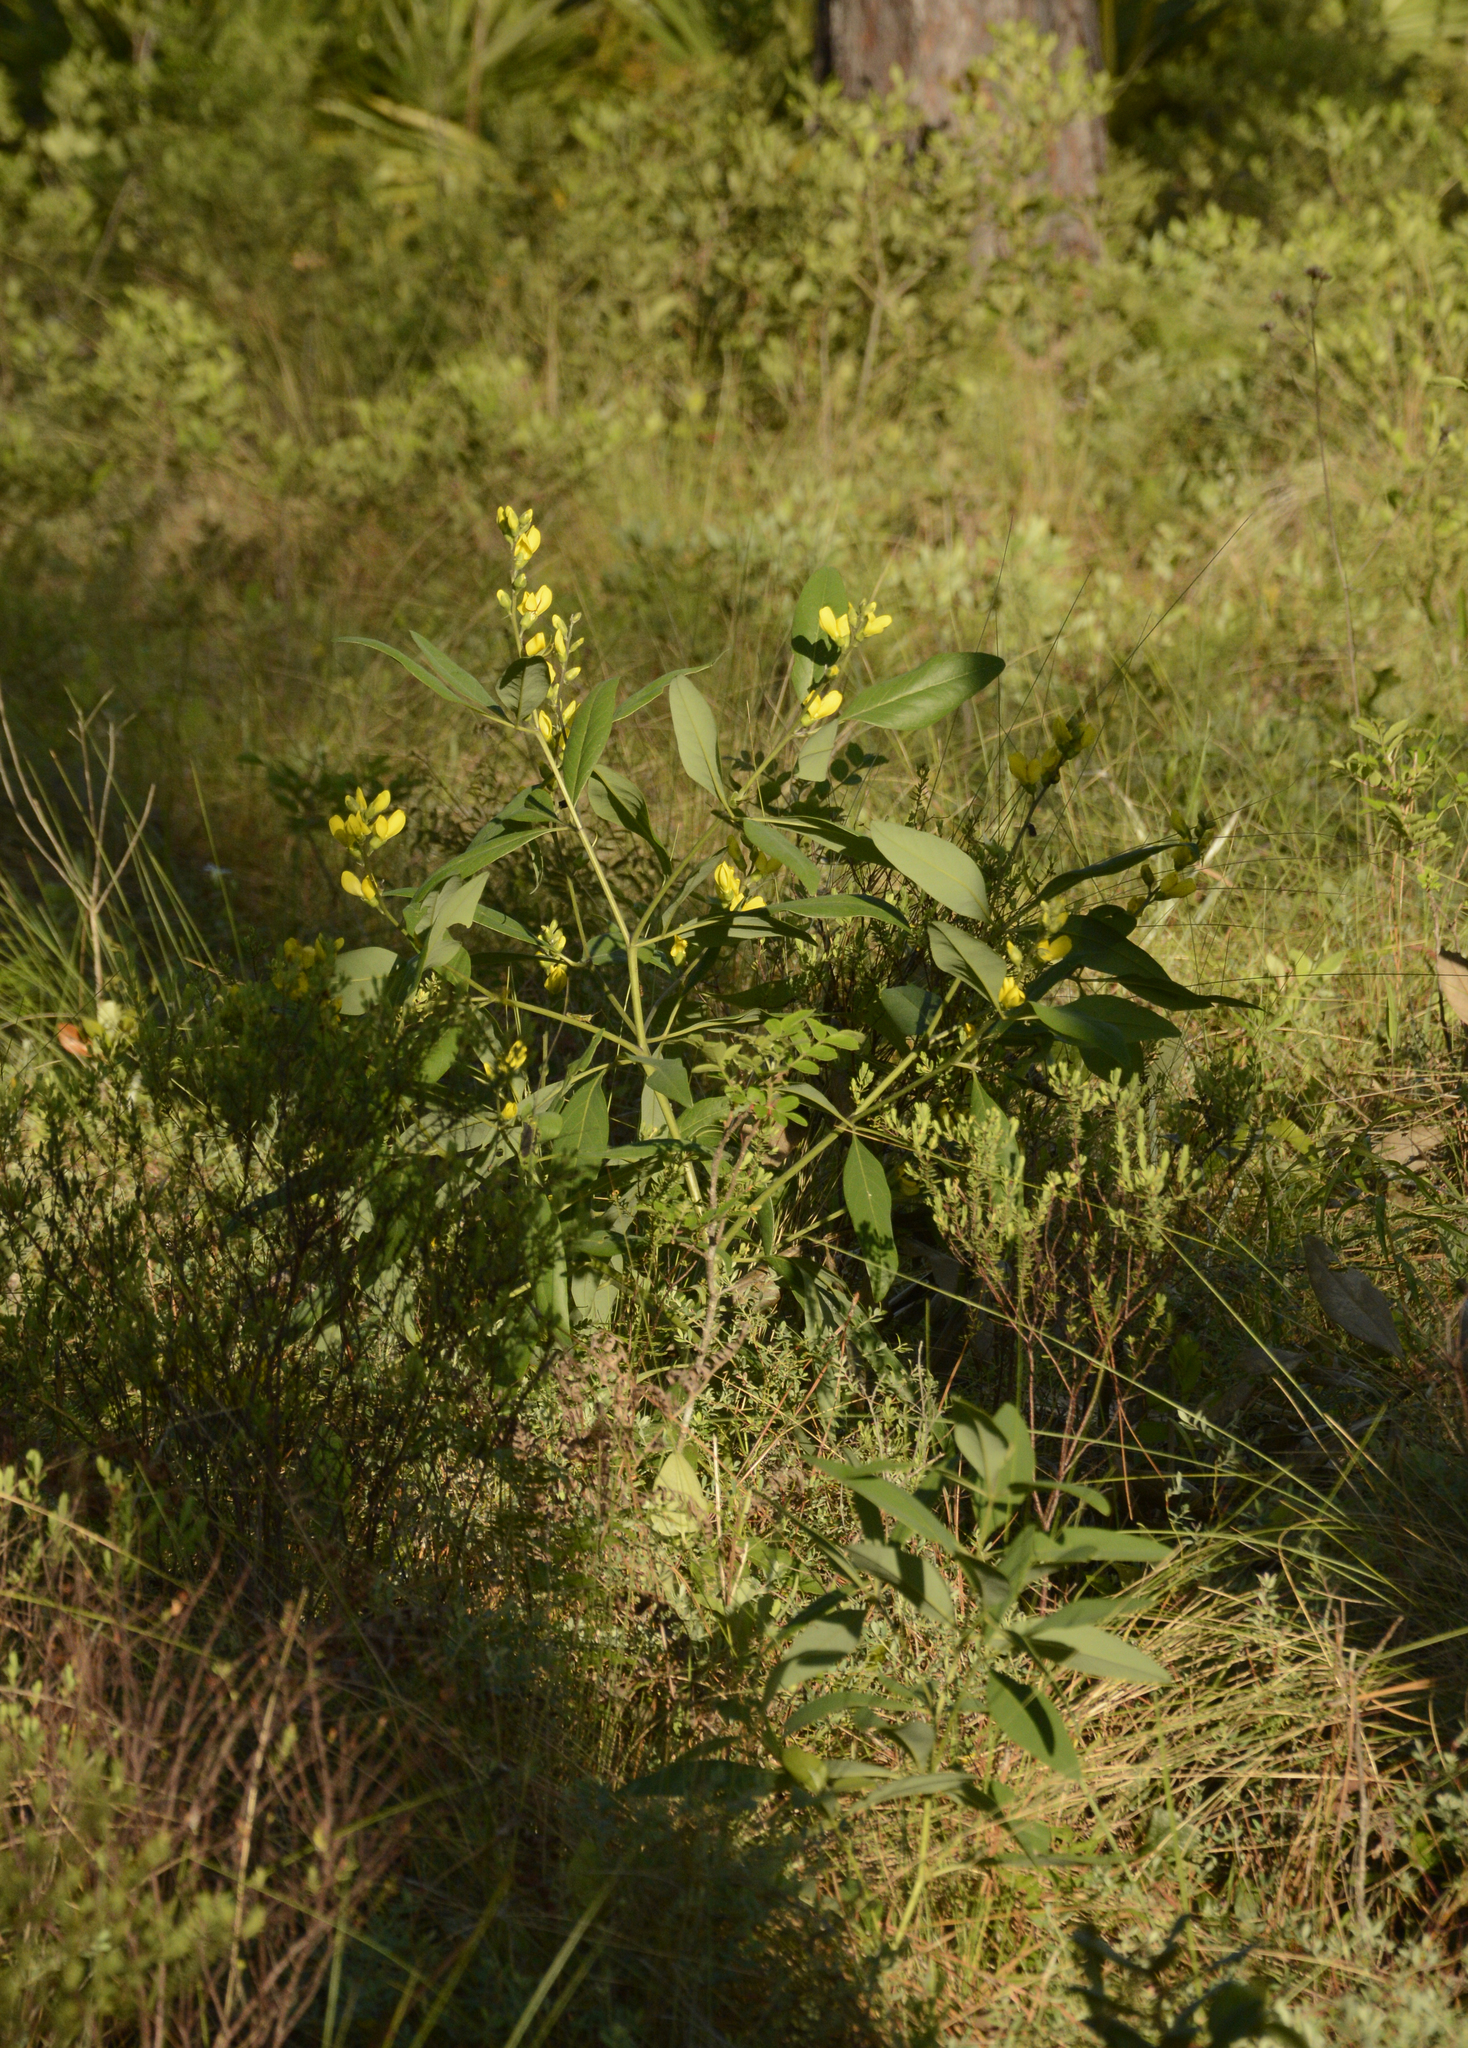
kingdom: Plantae
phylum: Tracheophyta
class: Magnoliopsida
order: Fabales
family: Fabaceae
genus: Baptisia
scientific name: Baptisia lanceolata
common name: Gopherweed
